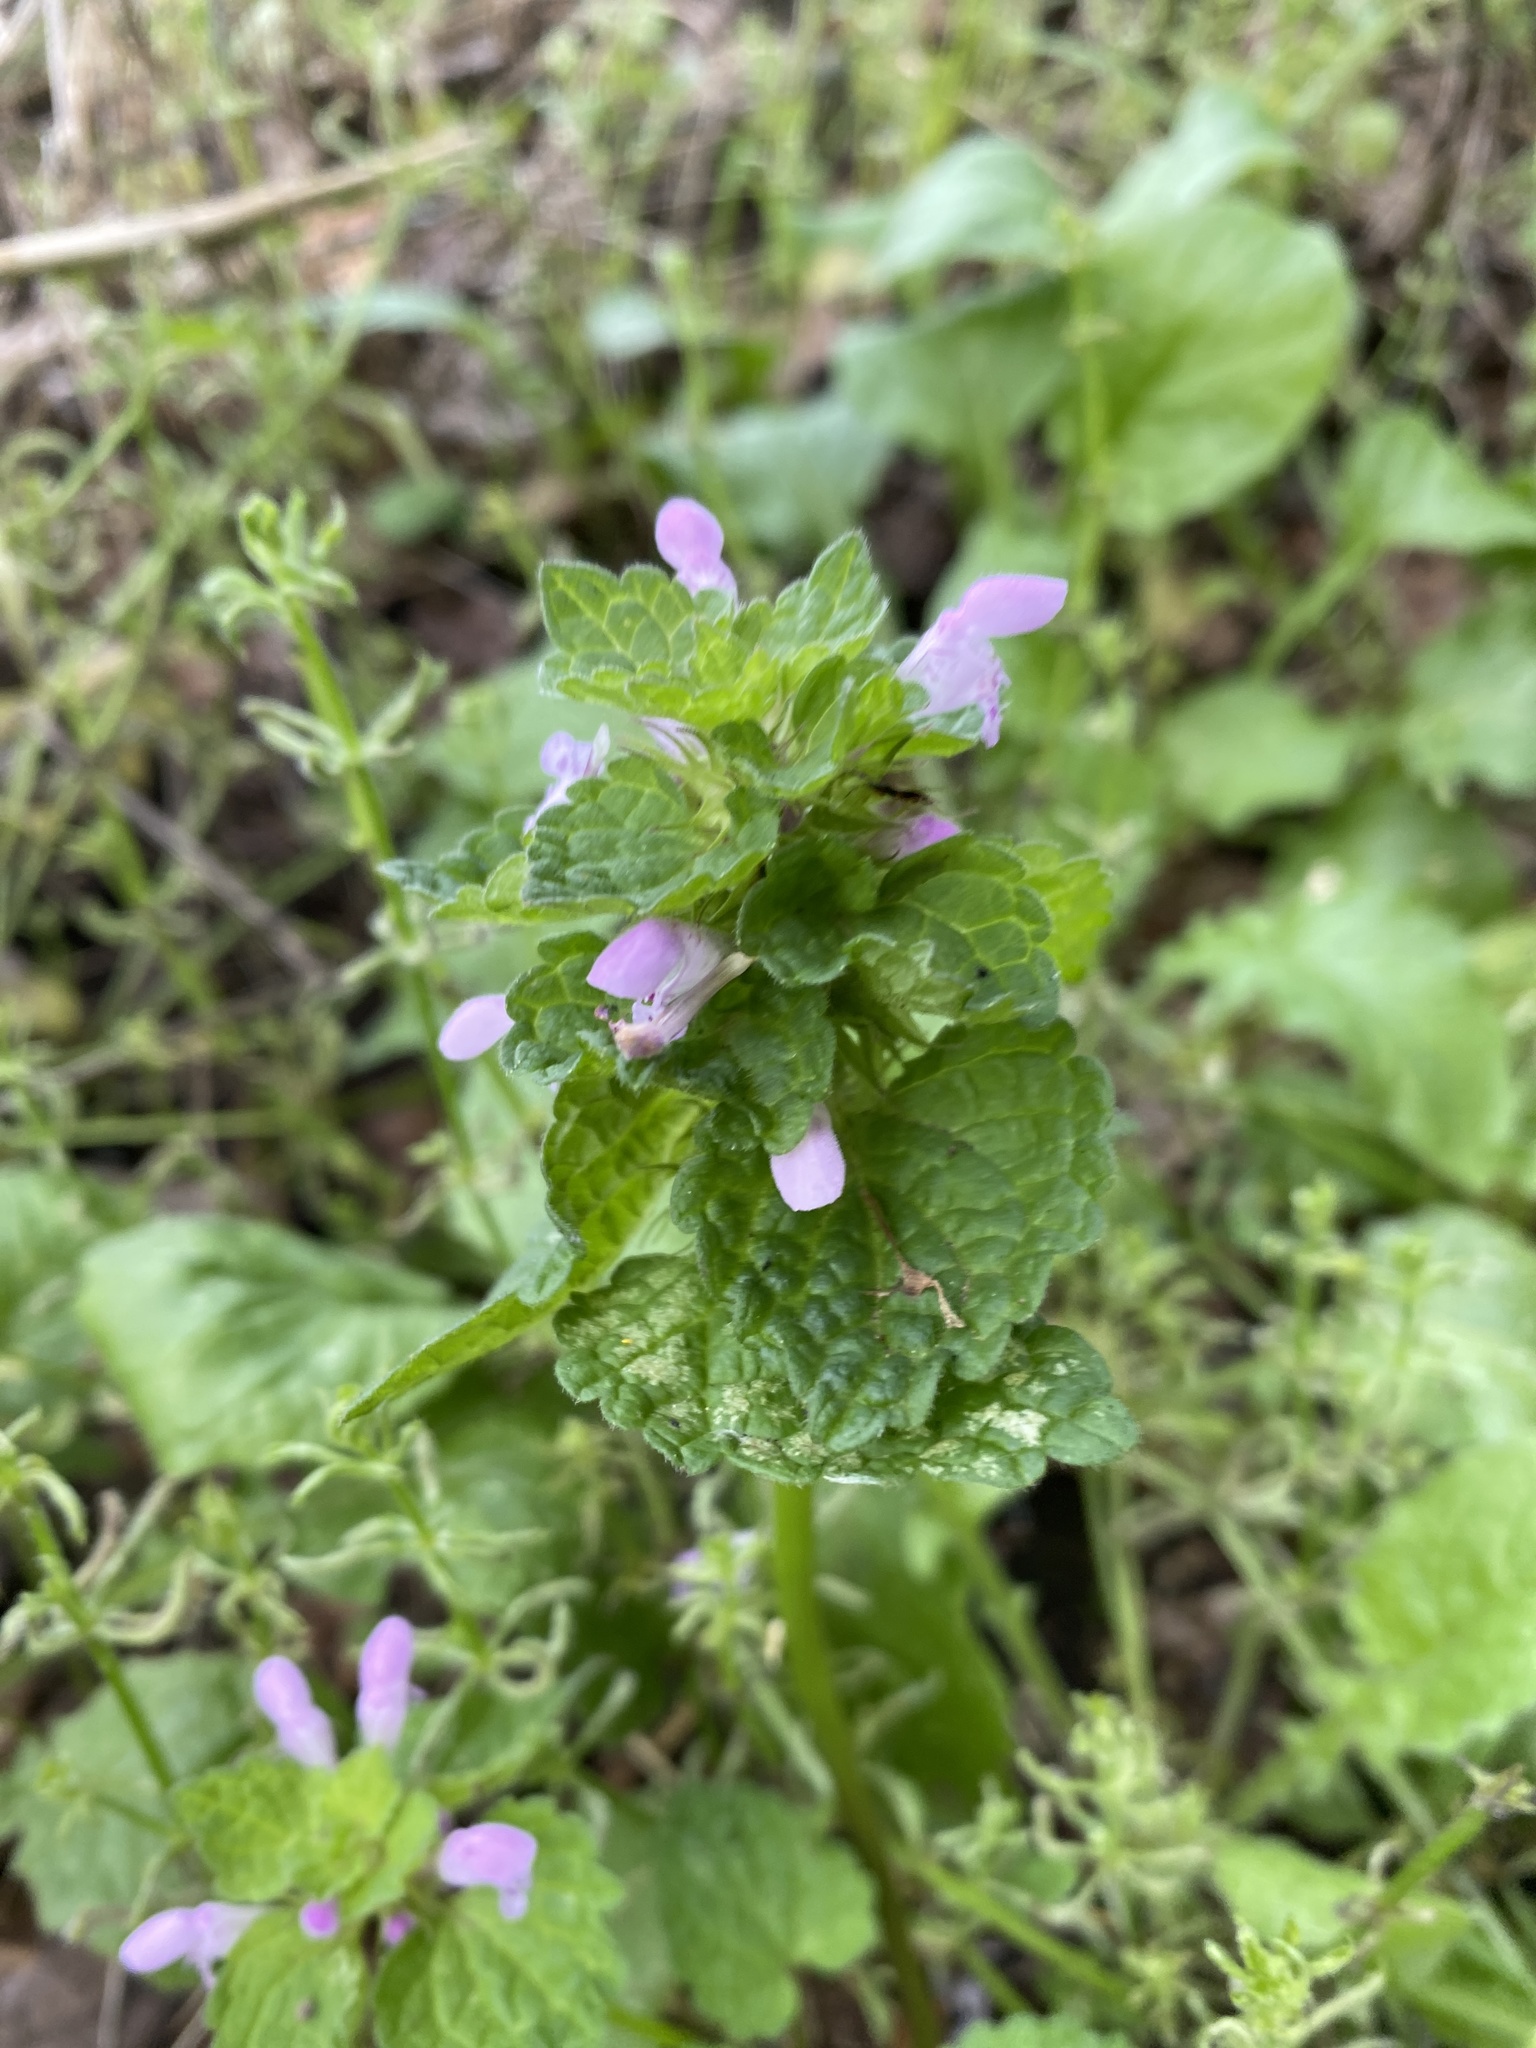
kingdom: Plantae
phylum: Tracheophyta
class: Magnoliopsida
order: Lamiales
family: Lamiaceae
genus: Lamium
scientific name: Lamium purpureum
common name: Red dead-nettle
